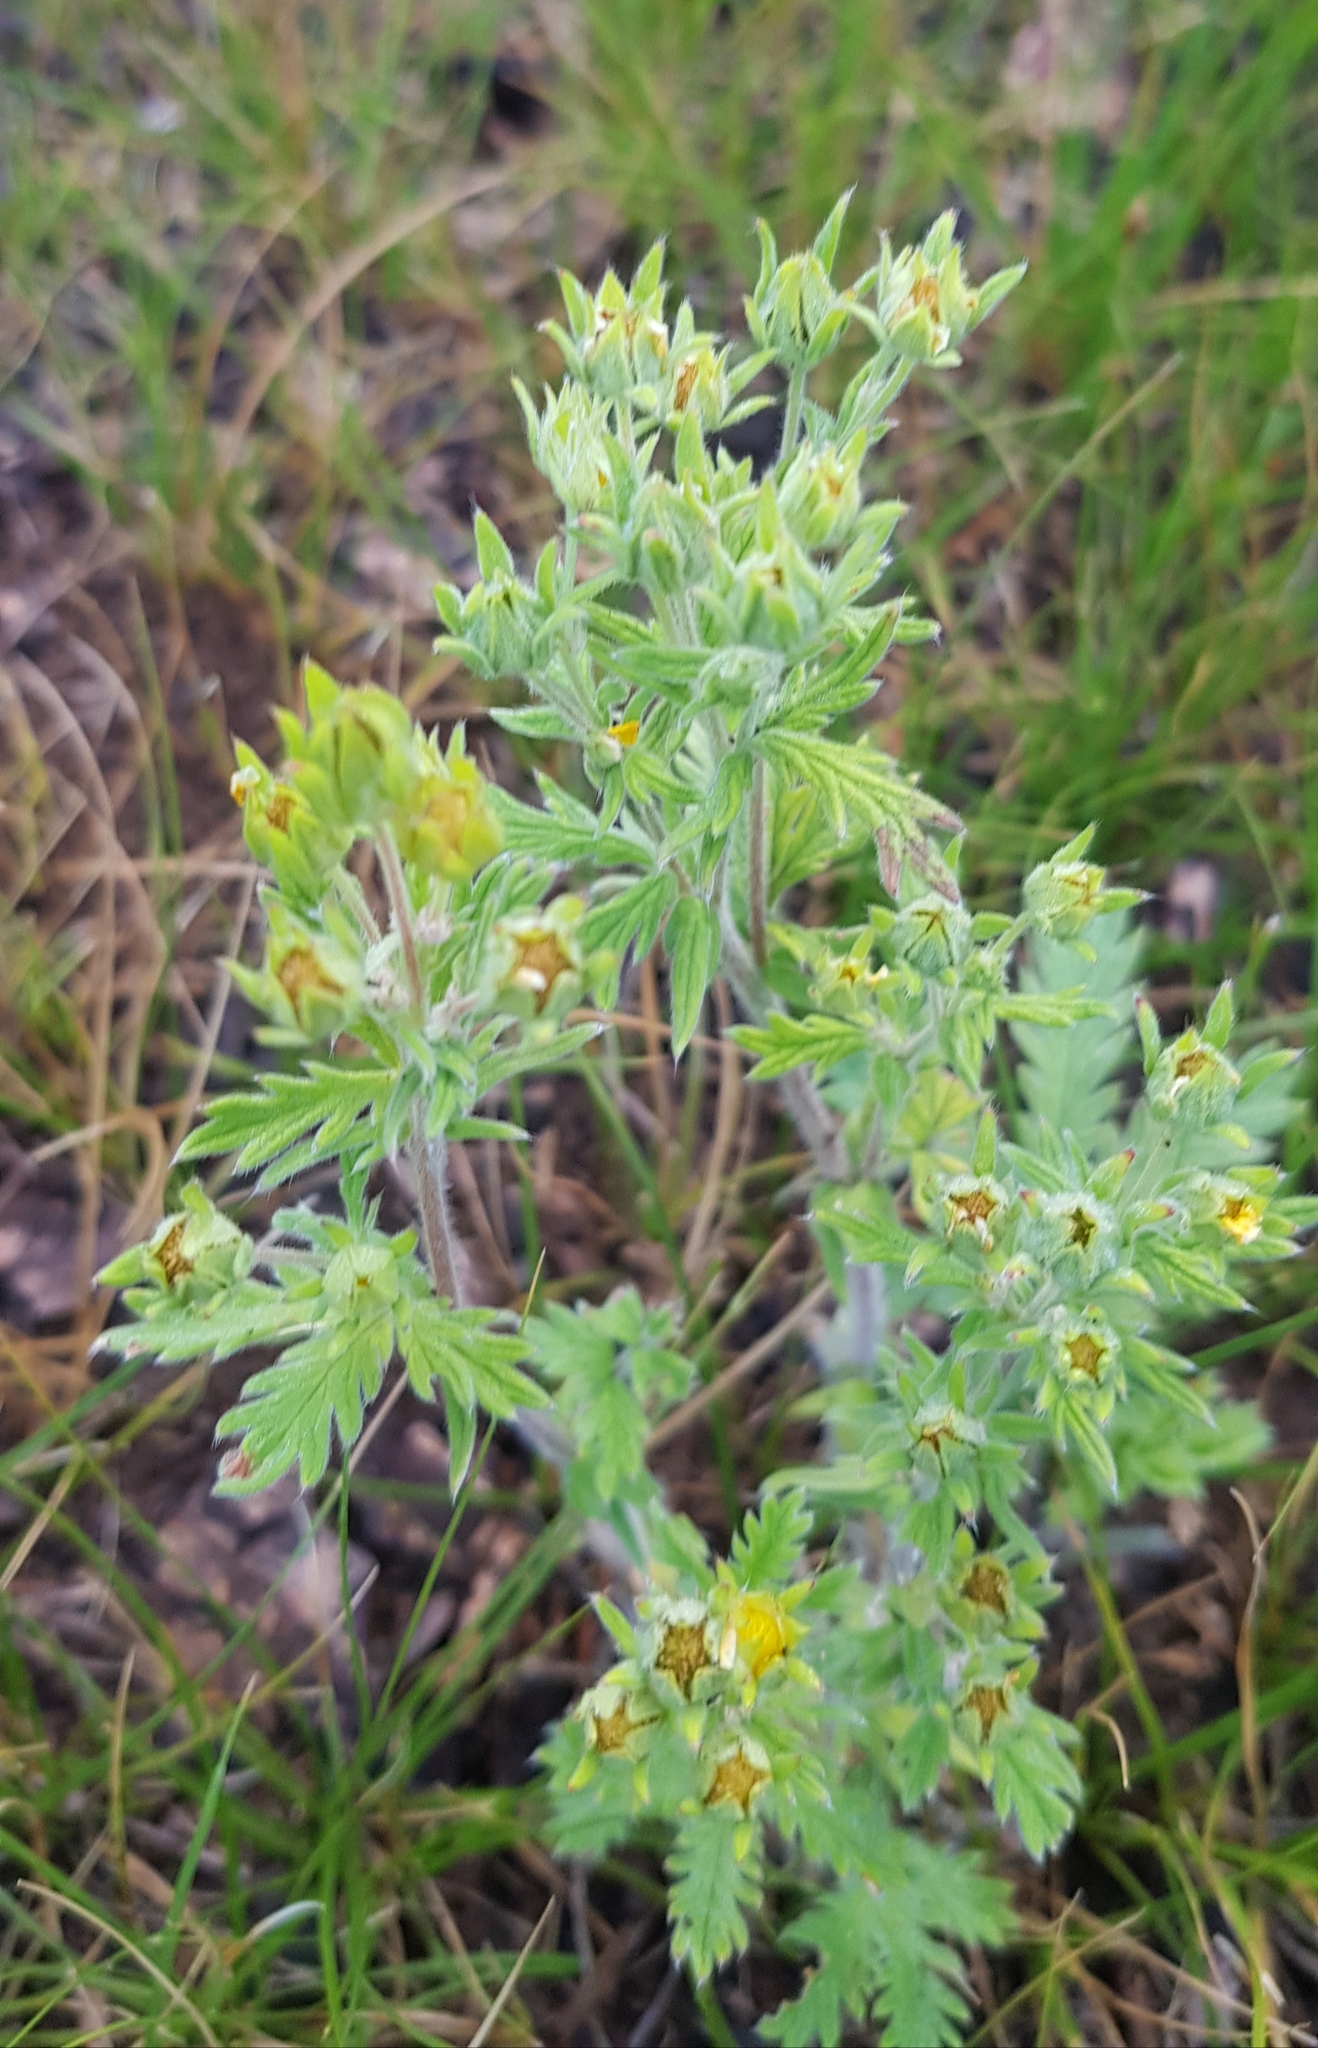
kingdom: Plantae
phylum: Tracheophyta
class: Magnoliopsida
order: Rosales
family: Rosaceae
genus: Potentilla
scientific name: Potentilla tanacetifolia
